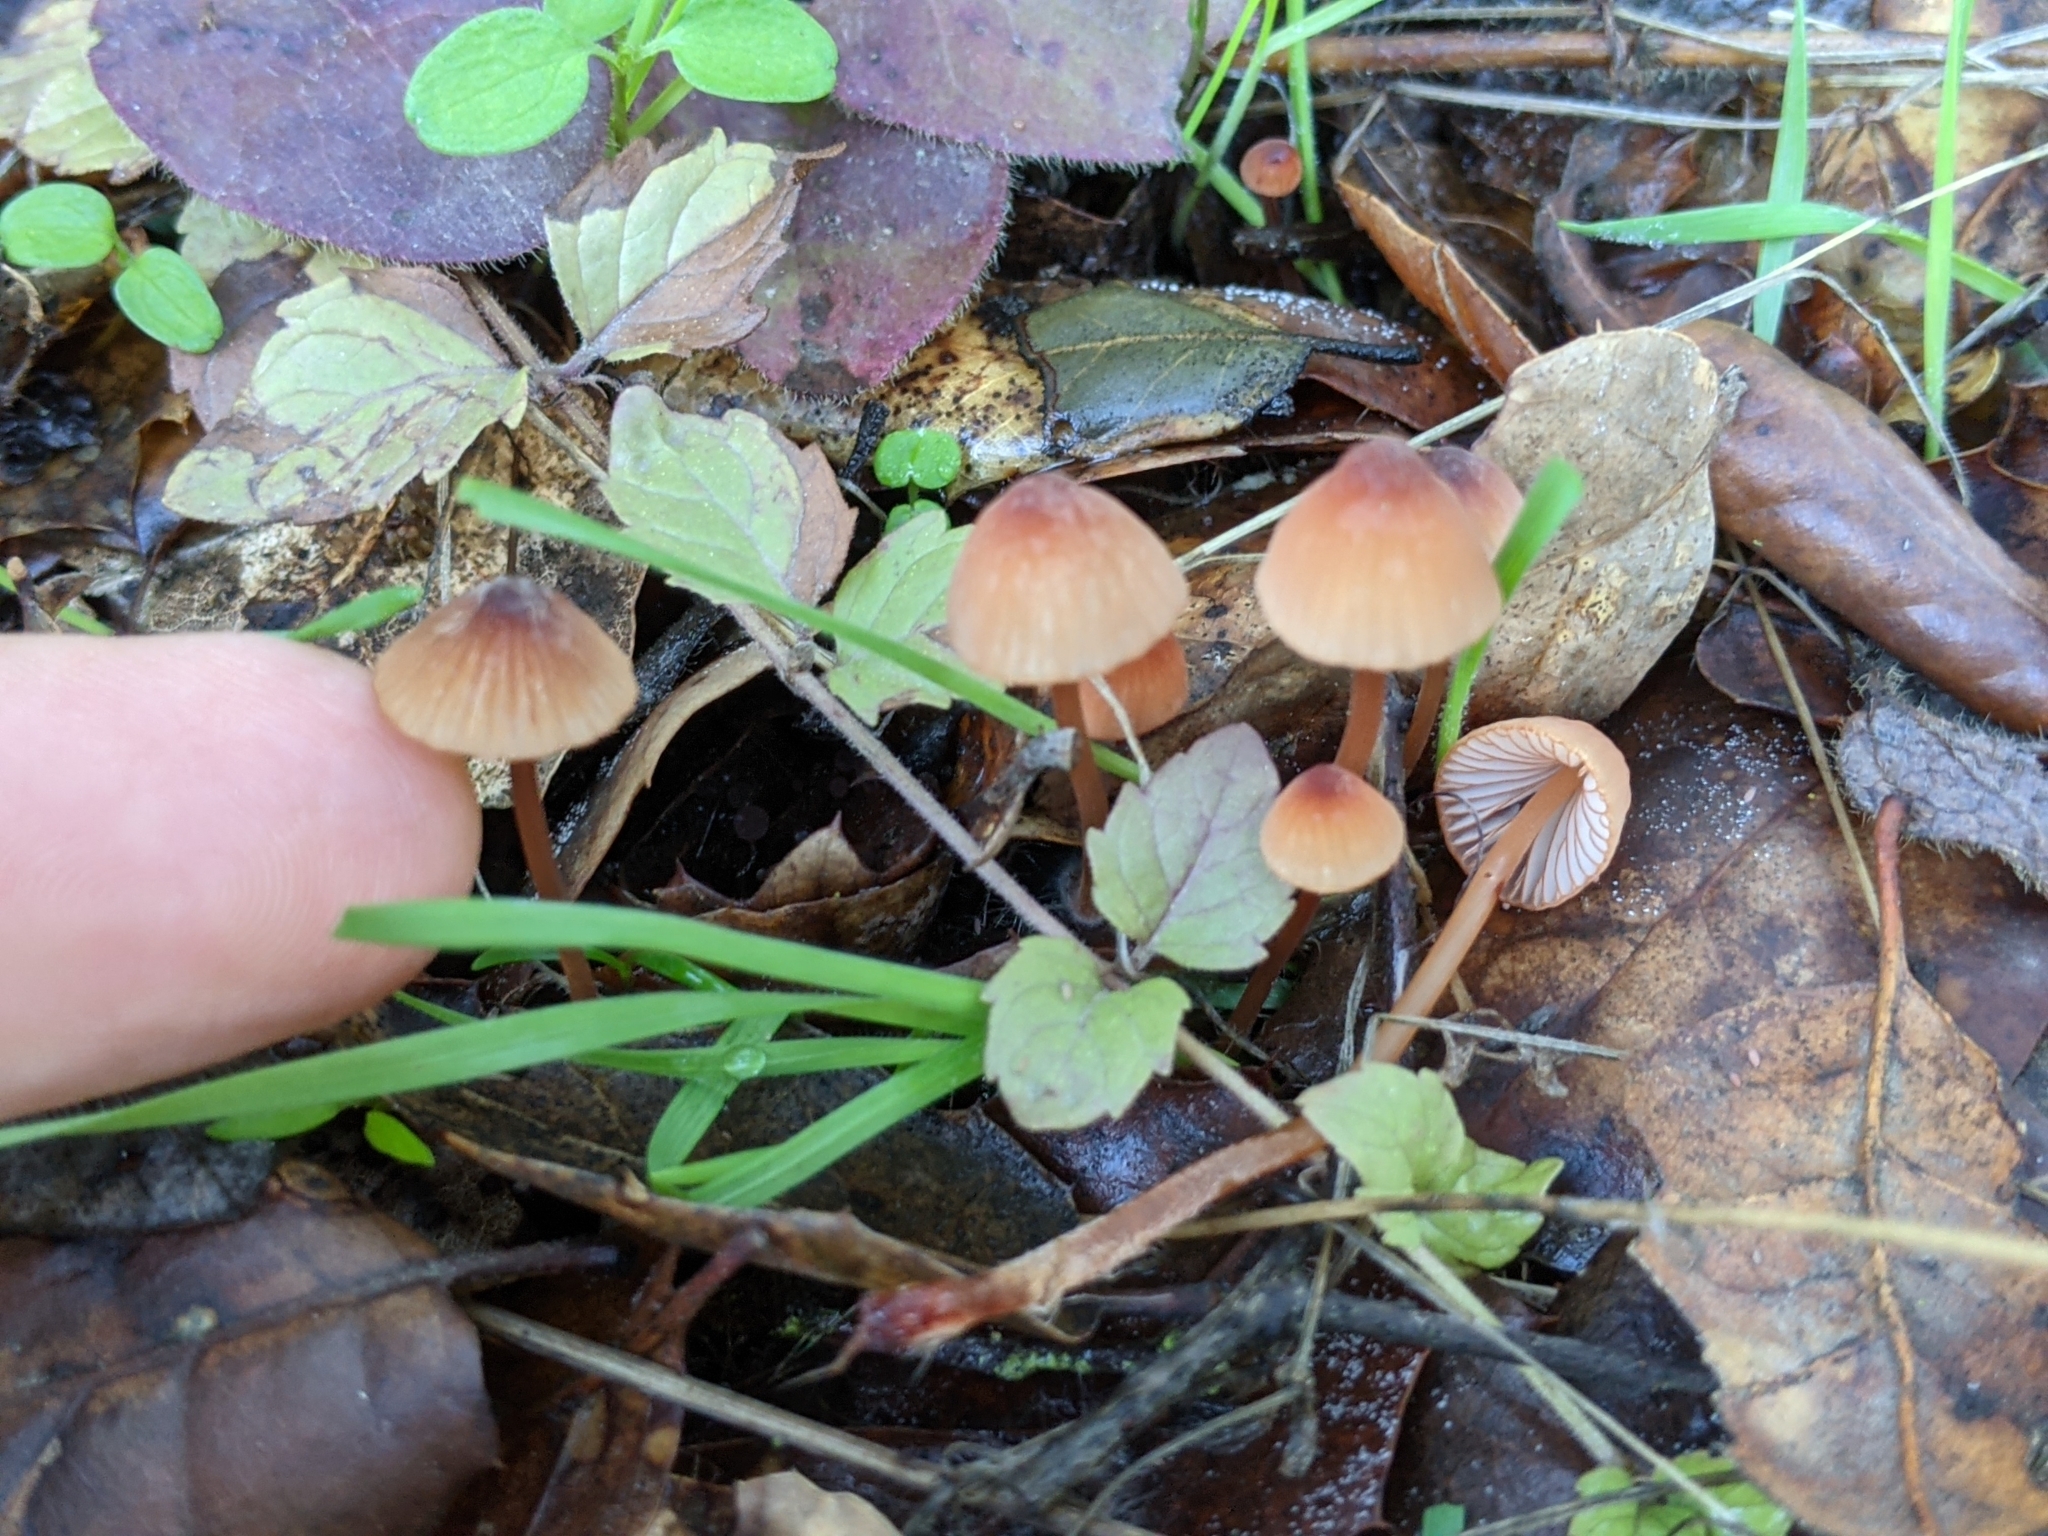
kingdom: Fungi
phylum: Basidiomycota
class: Agaricomycetes
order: Agaricales
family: Mycenaceae
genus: Mycena
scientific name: Mycena
